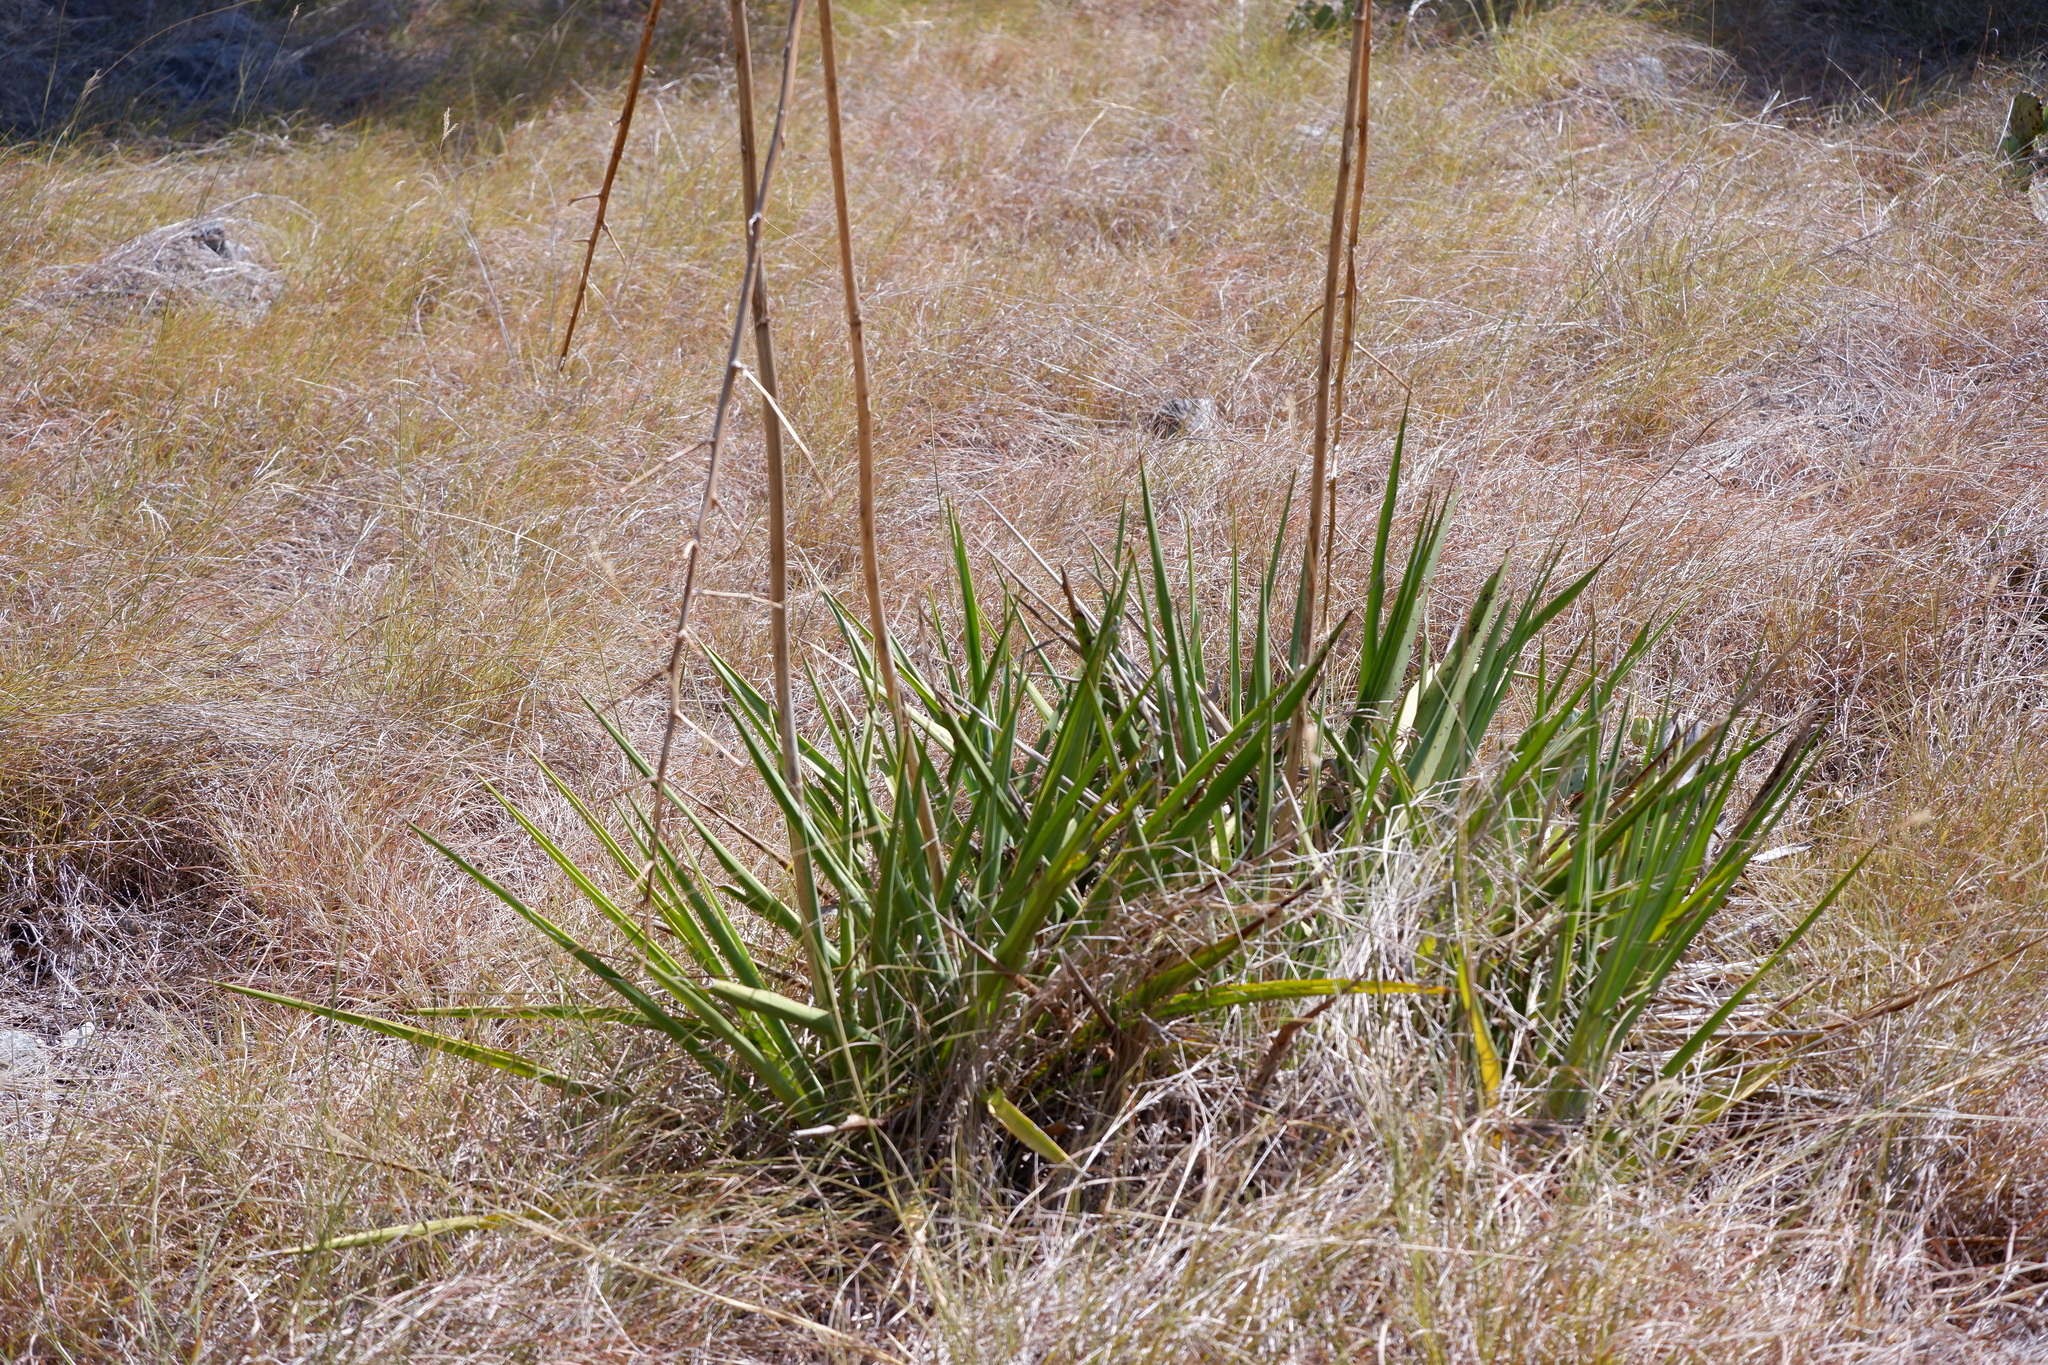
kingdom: Plantae
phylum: Tracheophyta
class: Liliopsida
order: Asparagales
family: Asparagaceae
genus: Yucca
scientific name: Yucca rupicola
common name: Twisted-leaf spanish-dagger
